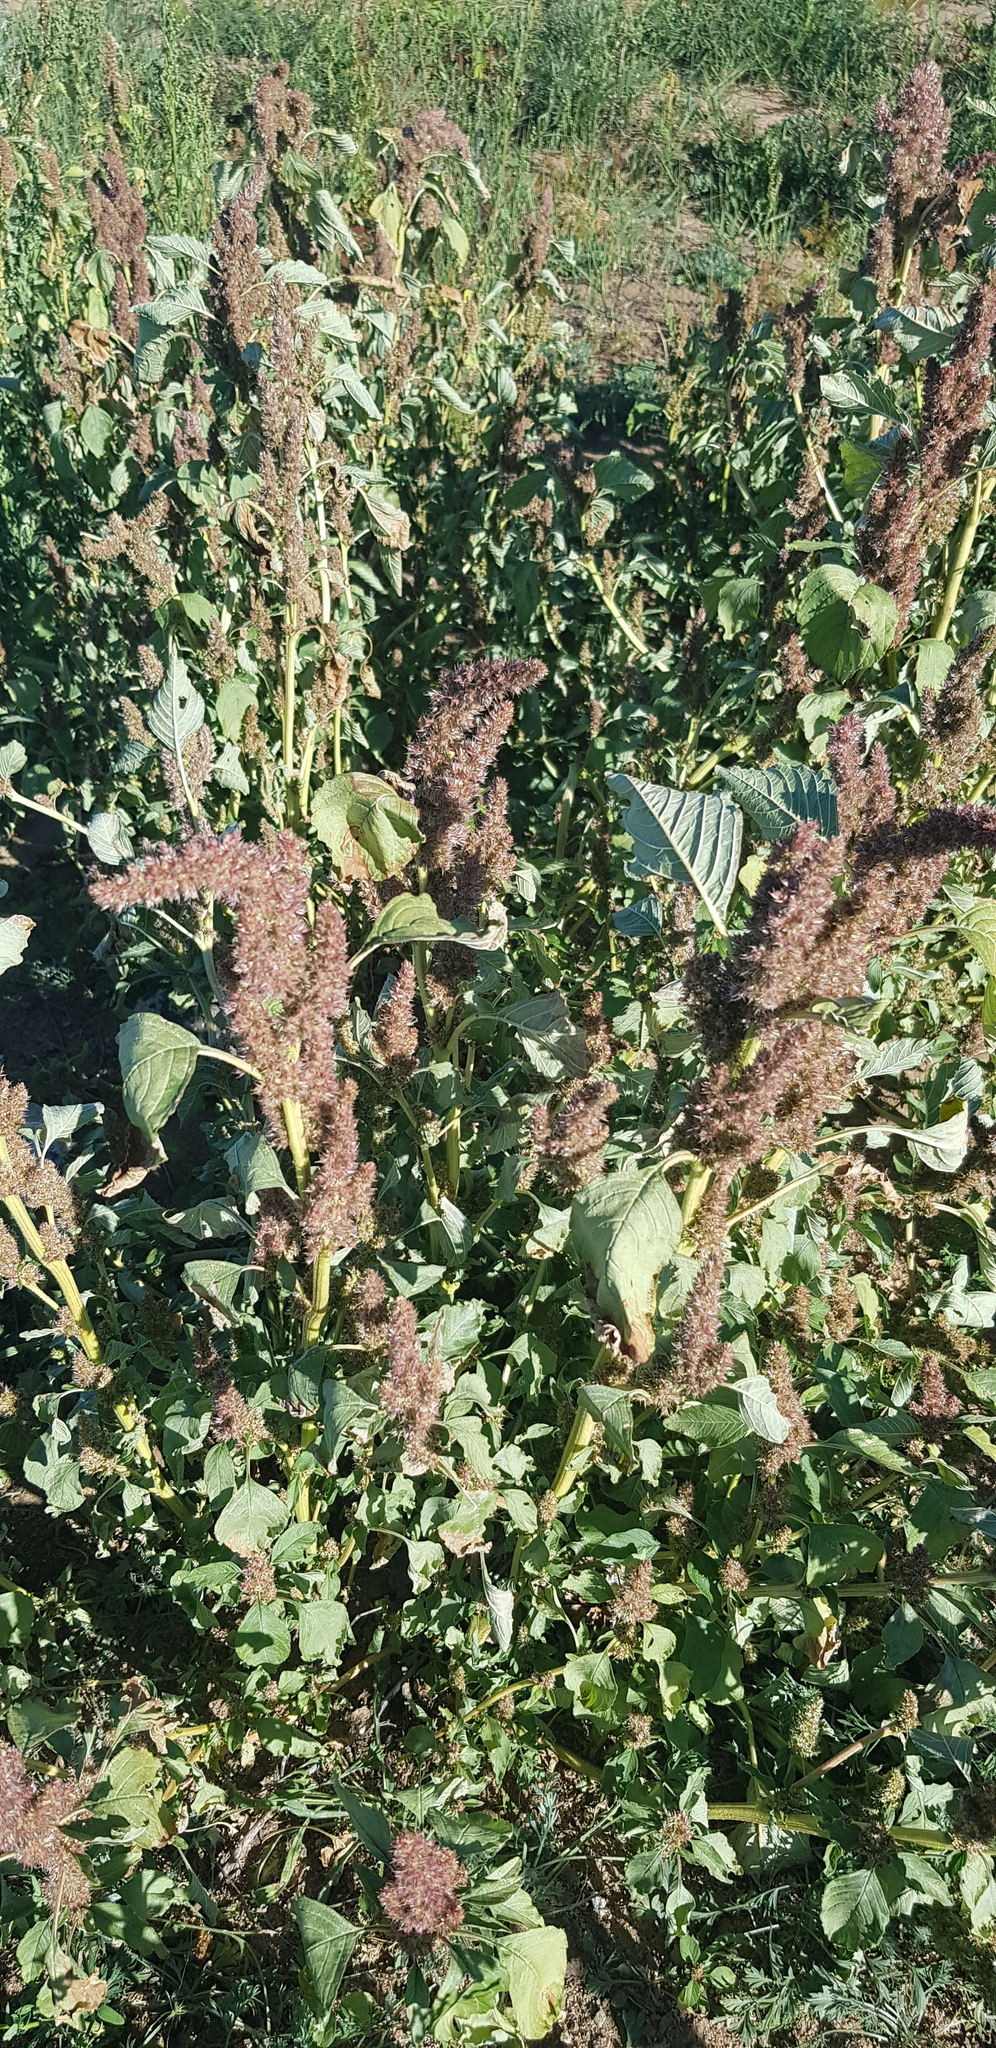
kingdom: Plantae
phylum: Tracheophyta
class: Magnoliopsida
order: Caryophyllales
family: Amaranthaceae
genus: Amaranthus
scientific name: Amaranthus retroflexus
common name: Redroot amaranth
